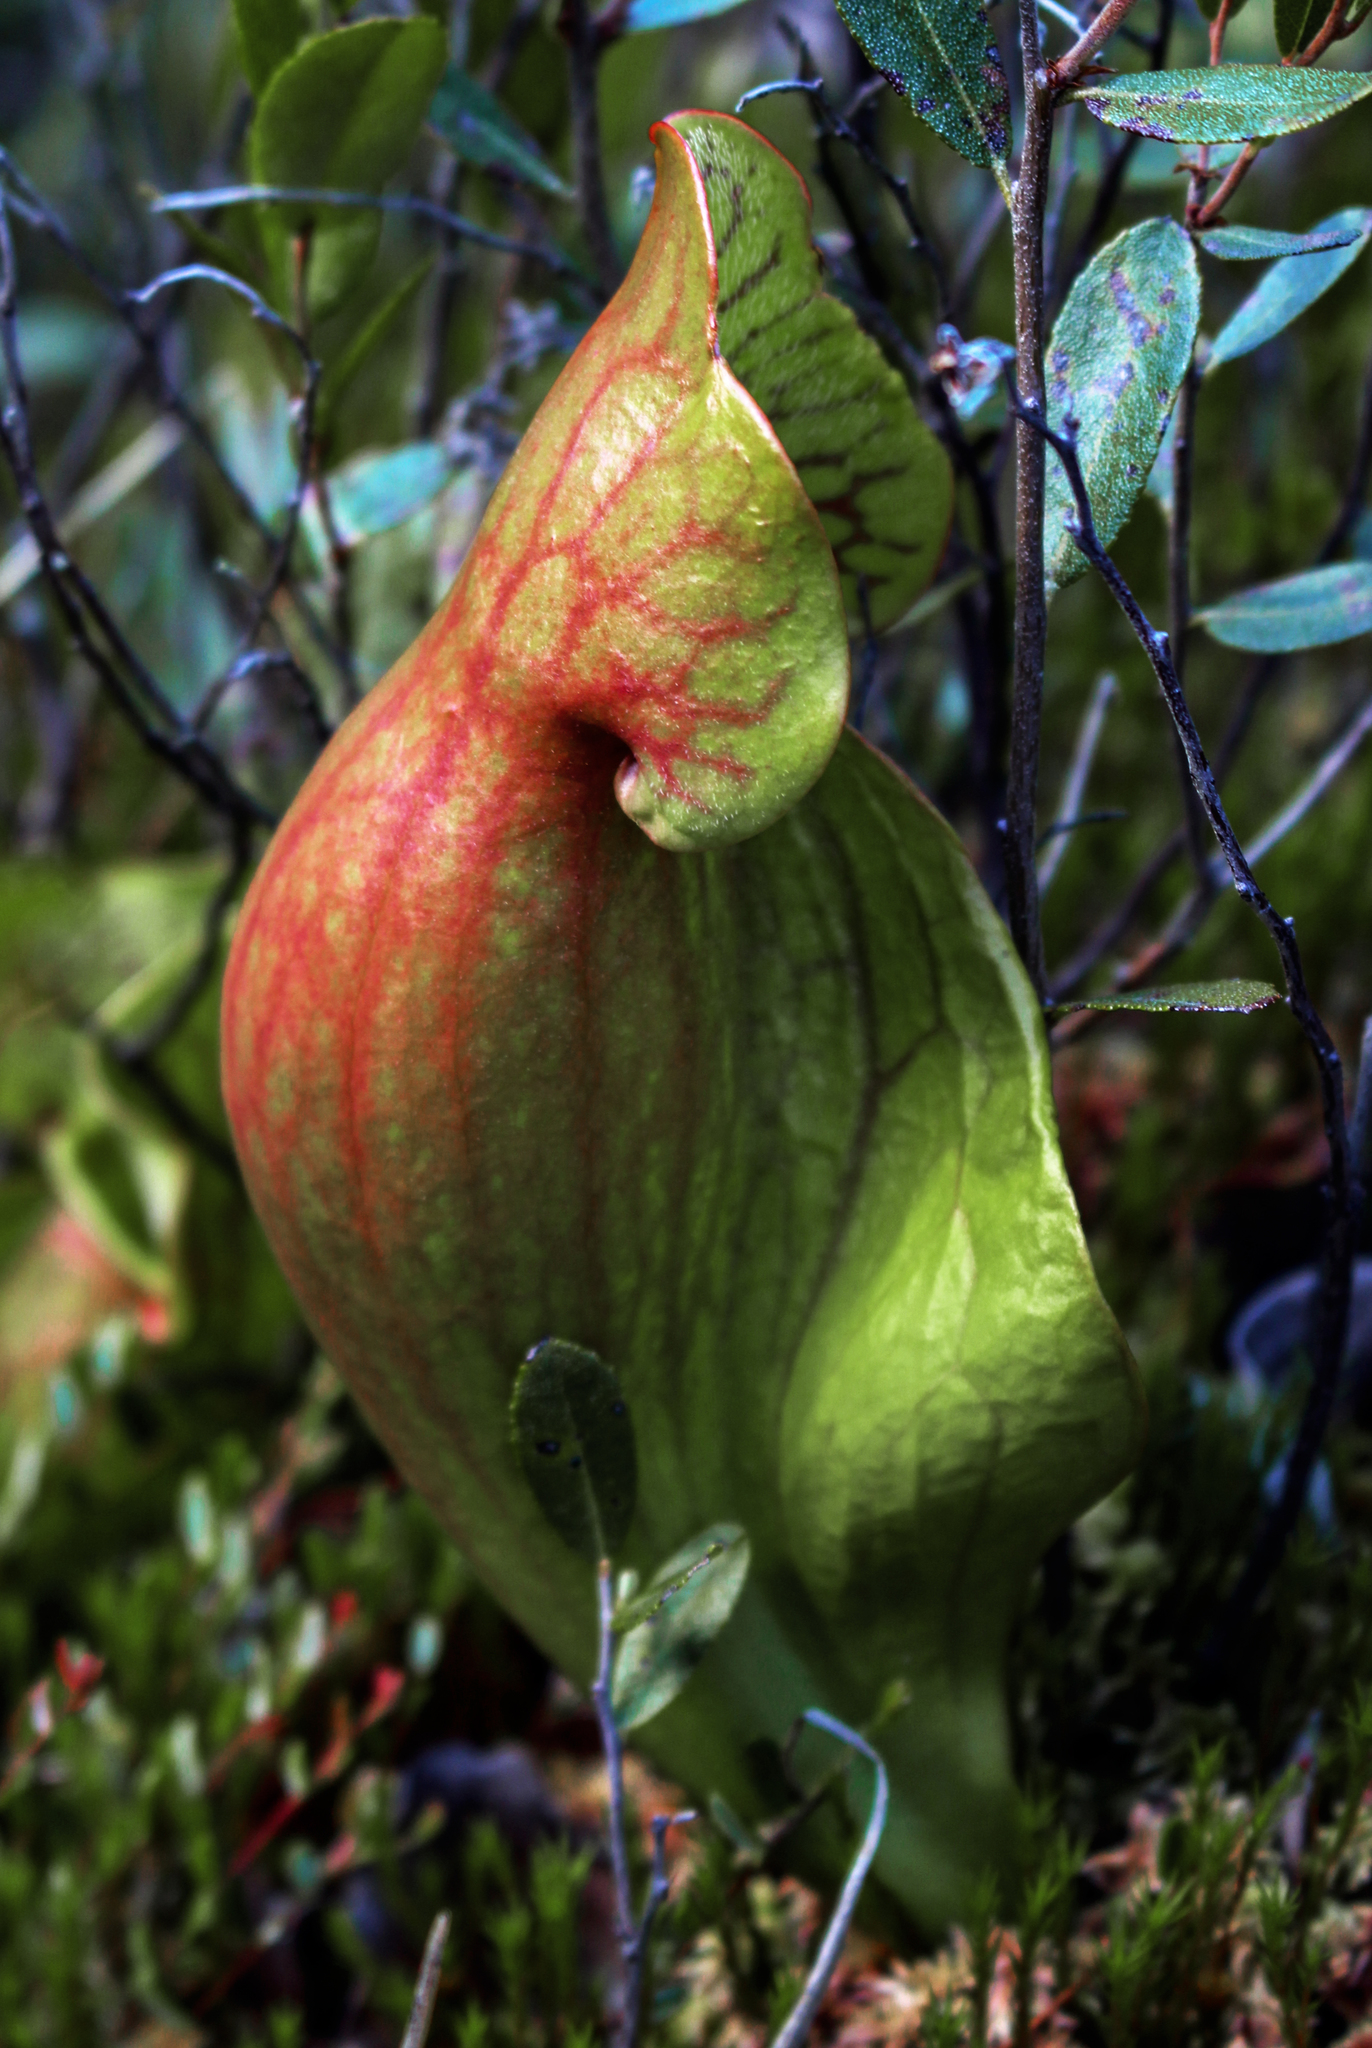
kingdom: Plantae
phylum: Tracheophyta
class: Magnoliopsida
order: Ericales
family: Sarraceniaceae
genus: Sarracenia
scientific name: Sarracenia purpurea
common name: Pitcherplant
